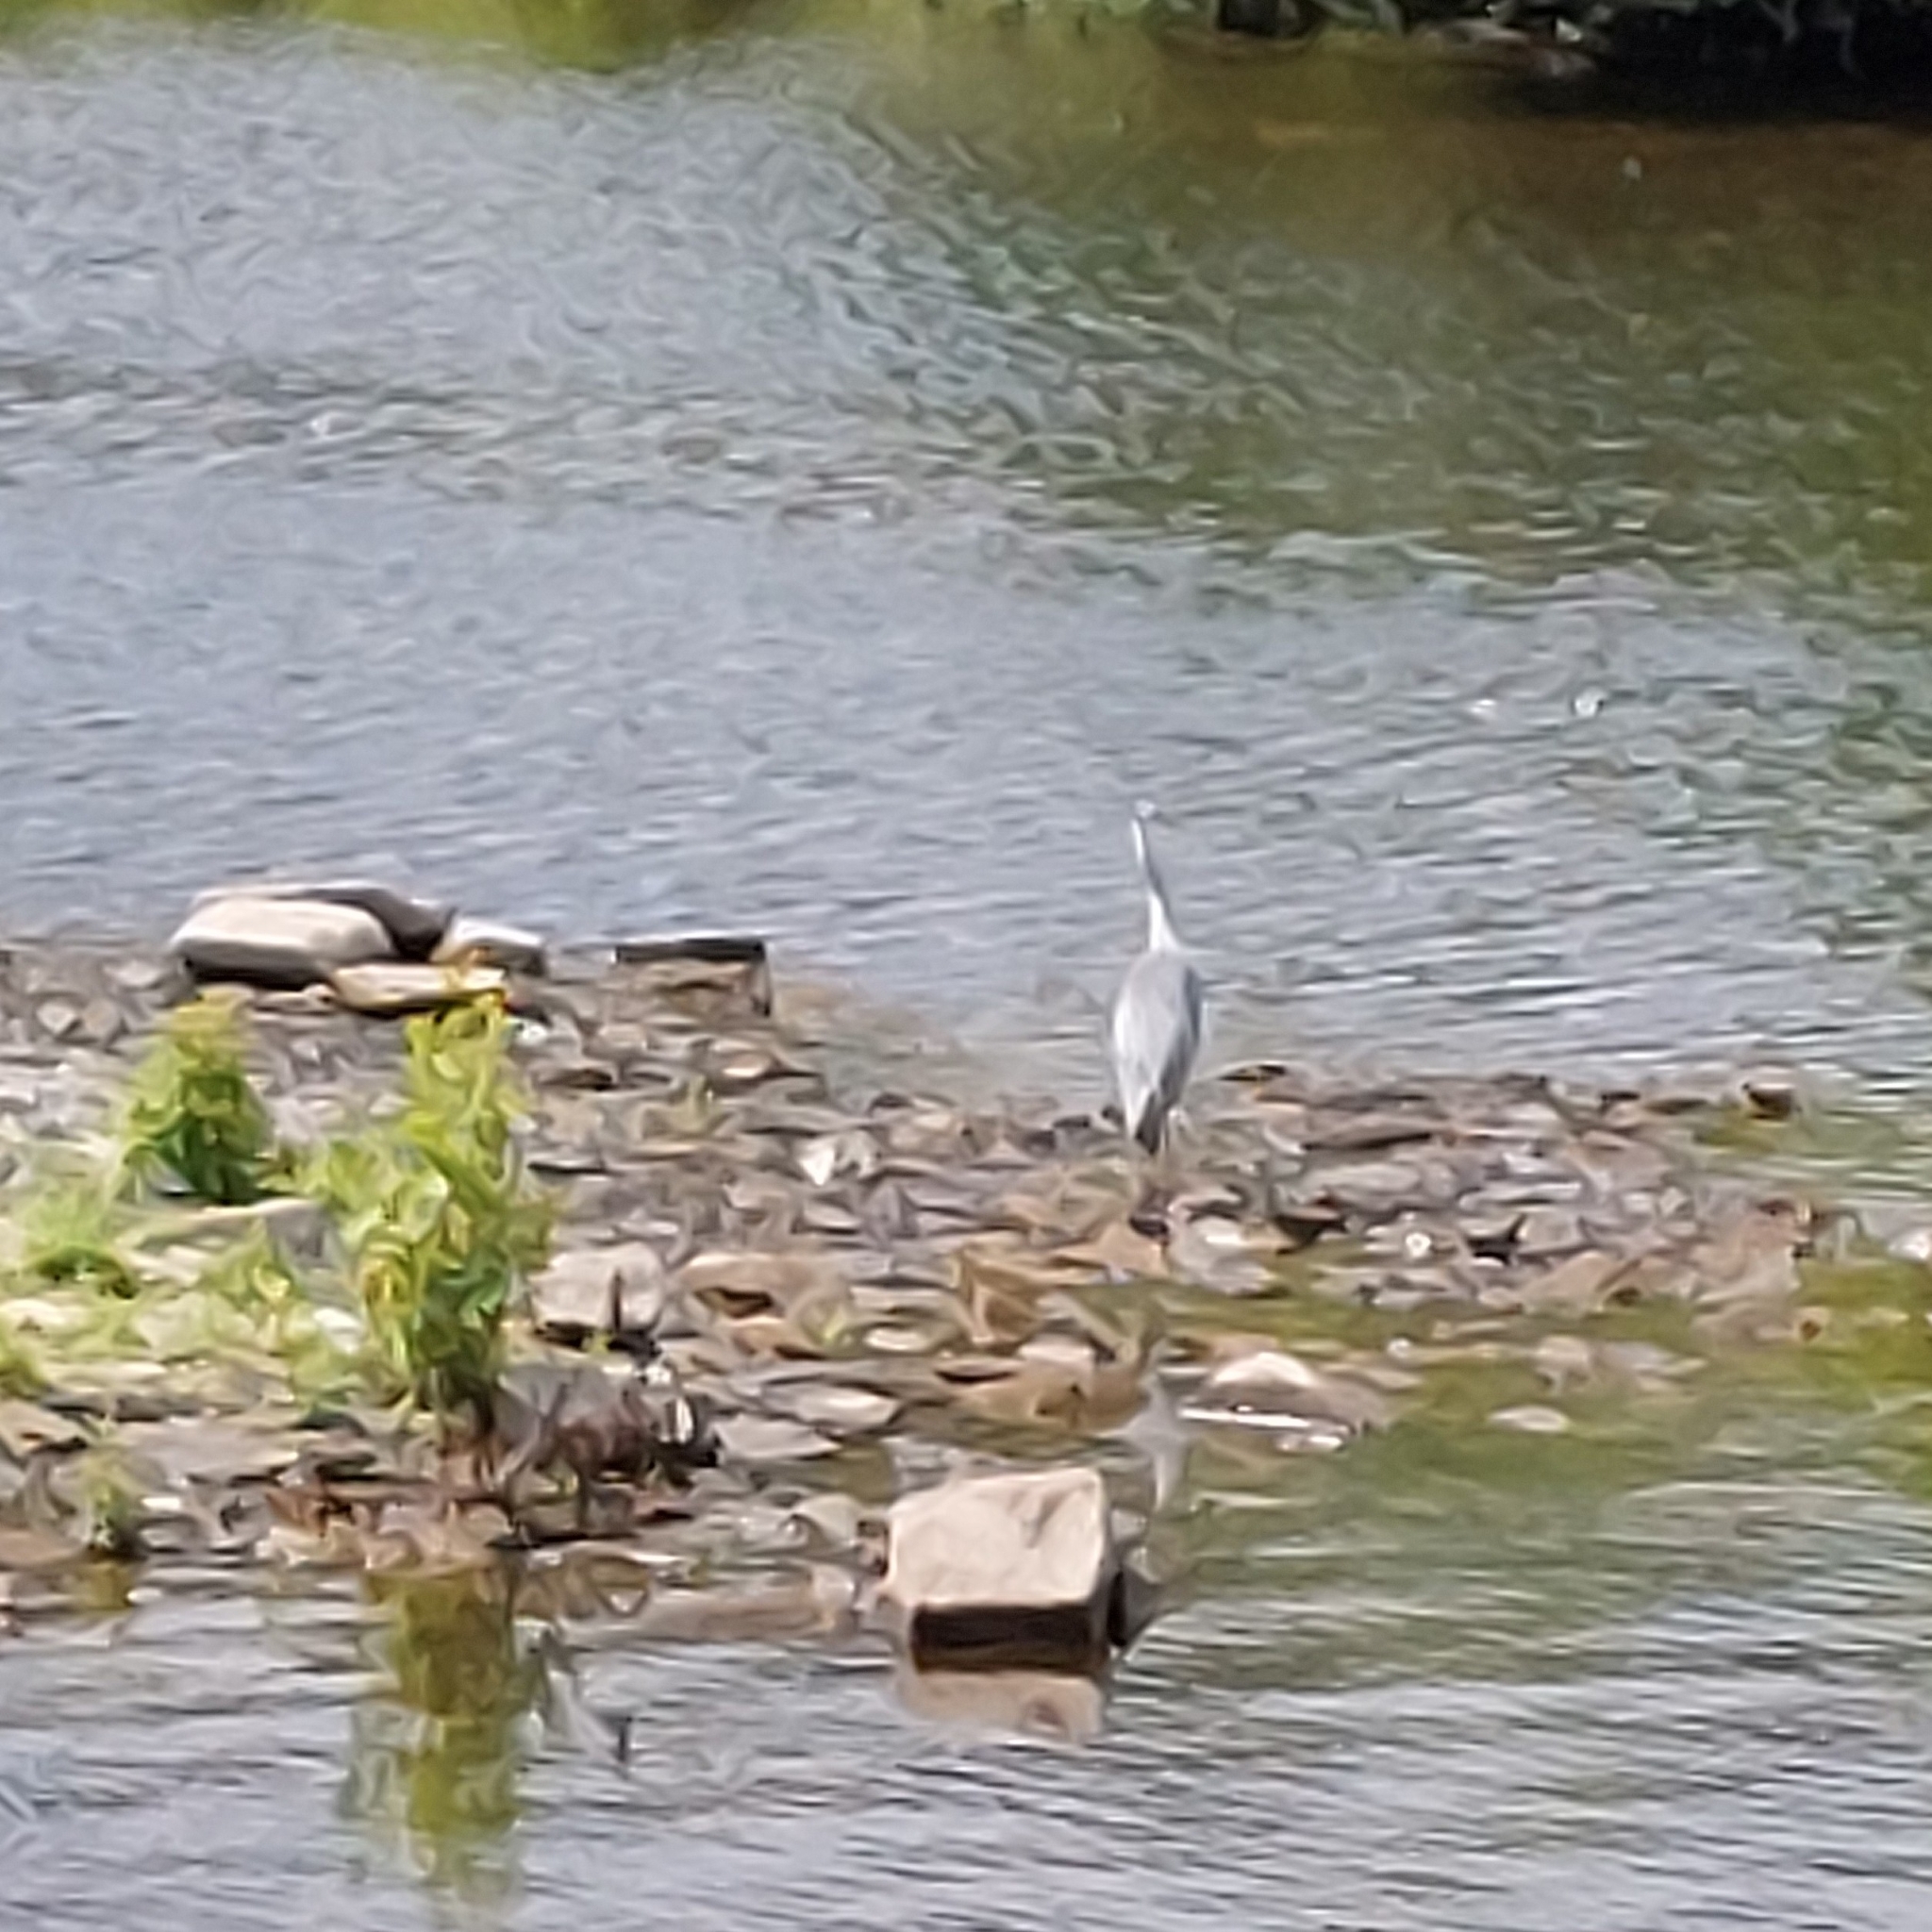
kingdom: Animalia
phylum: Chordata
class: Aves
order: Pelecaniformes
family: Ardeidae
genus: Ardea
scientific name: Ardea cinerea
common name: Grey heron
